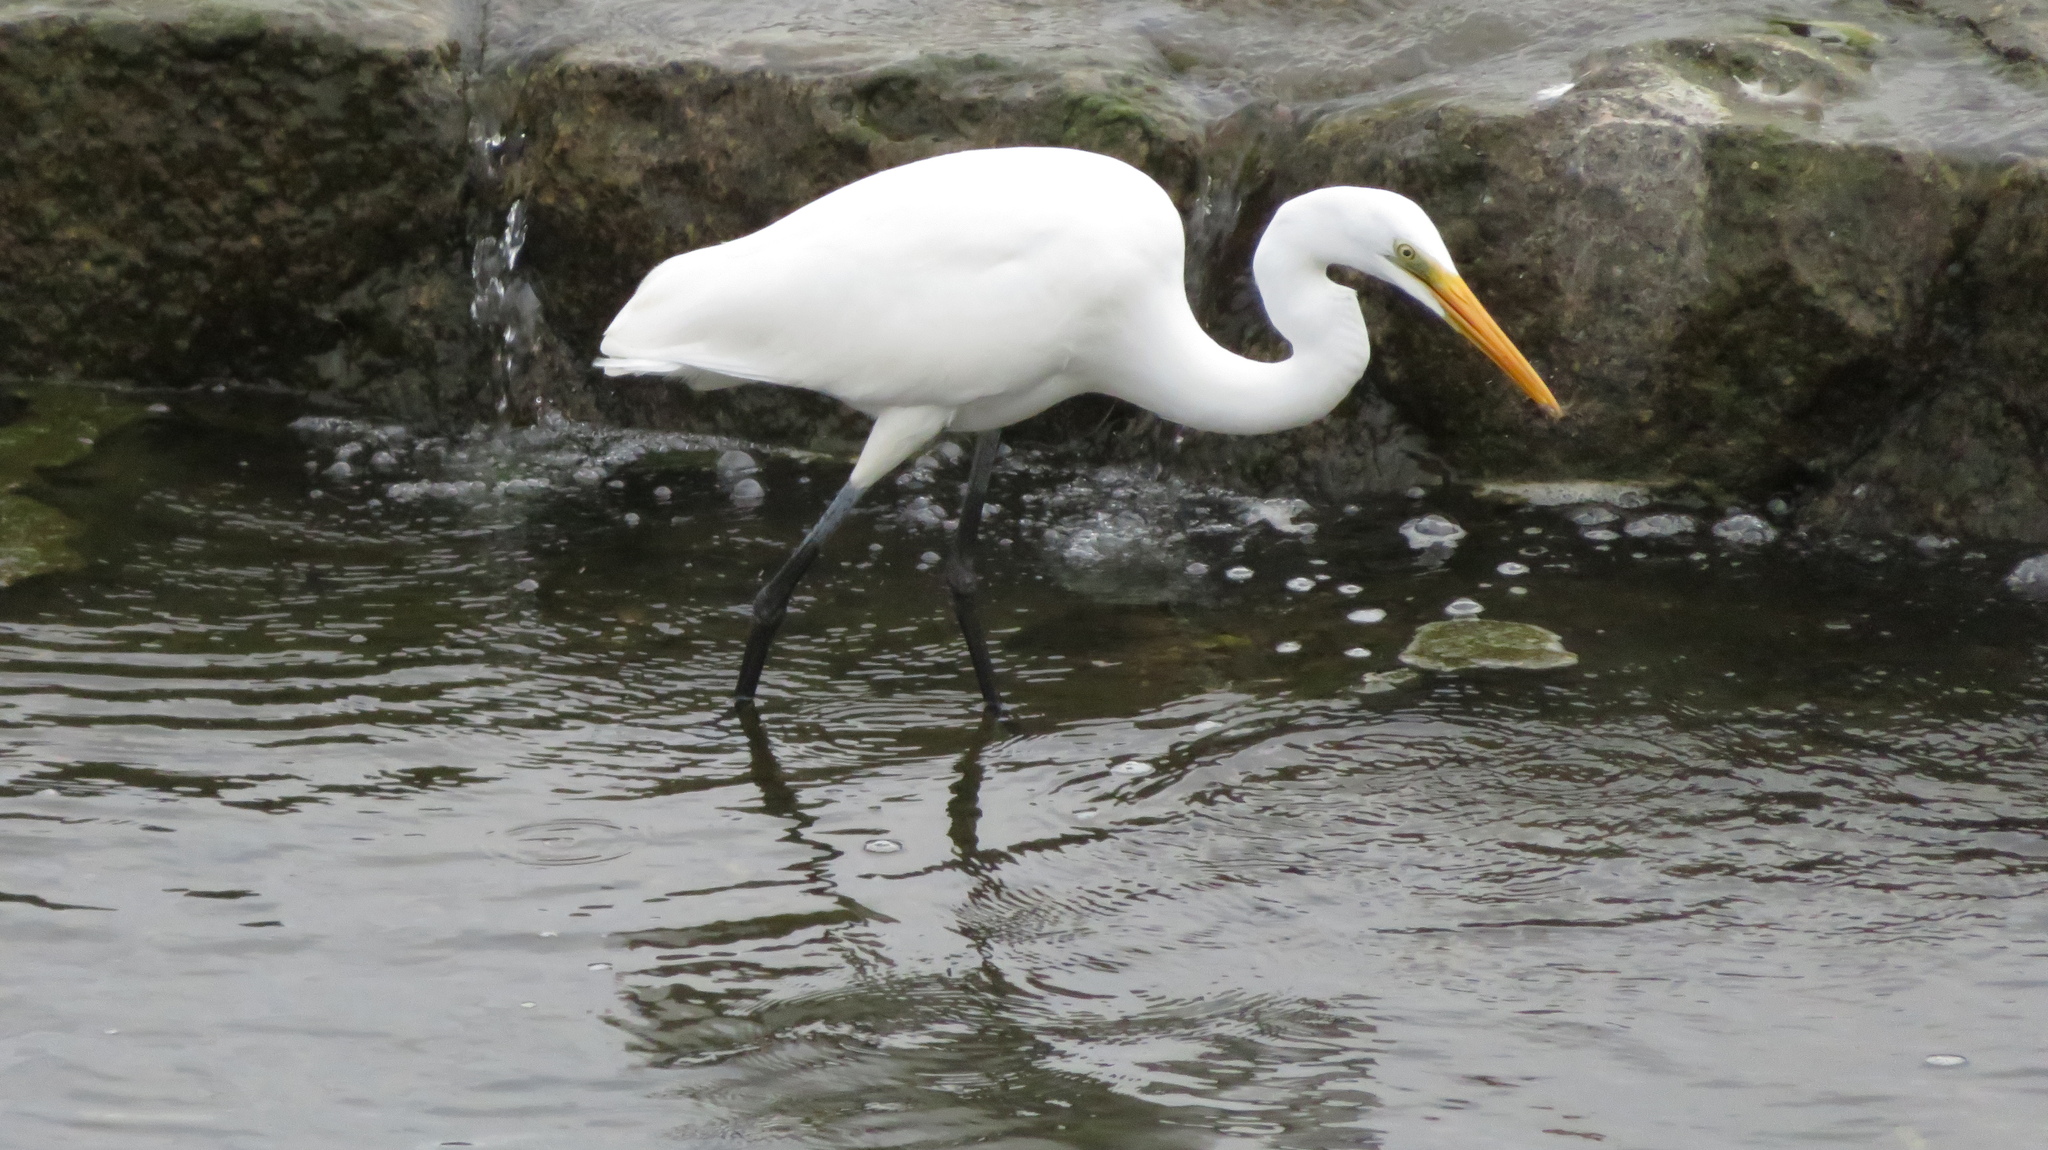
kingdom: Animalia
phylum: Chordata
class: Aves
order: Pelecaniformes
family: Ardeidae
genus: Ardea
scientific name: Ardea alba
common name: Great egret
